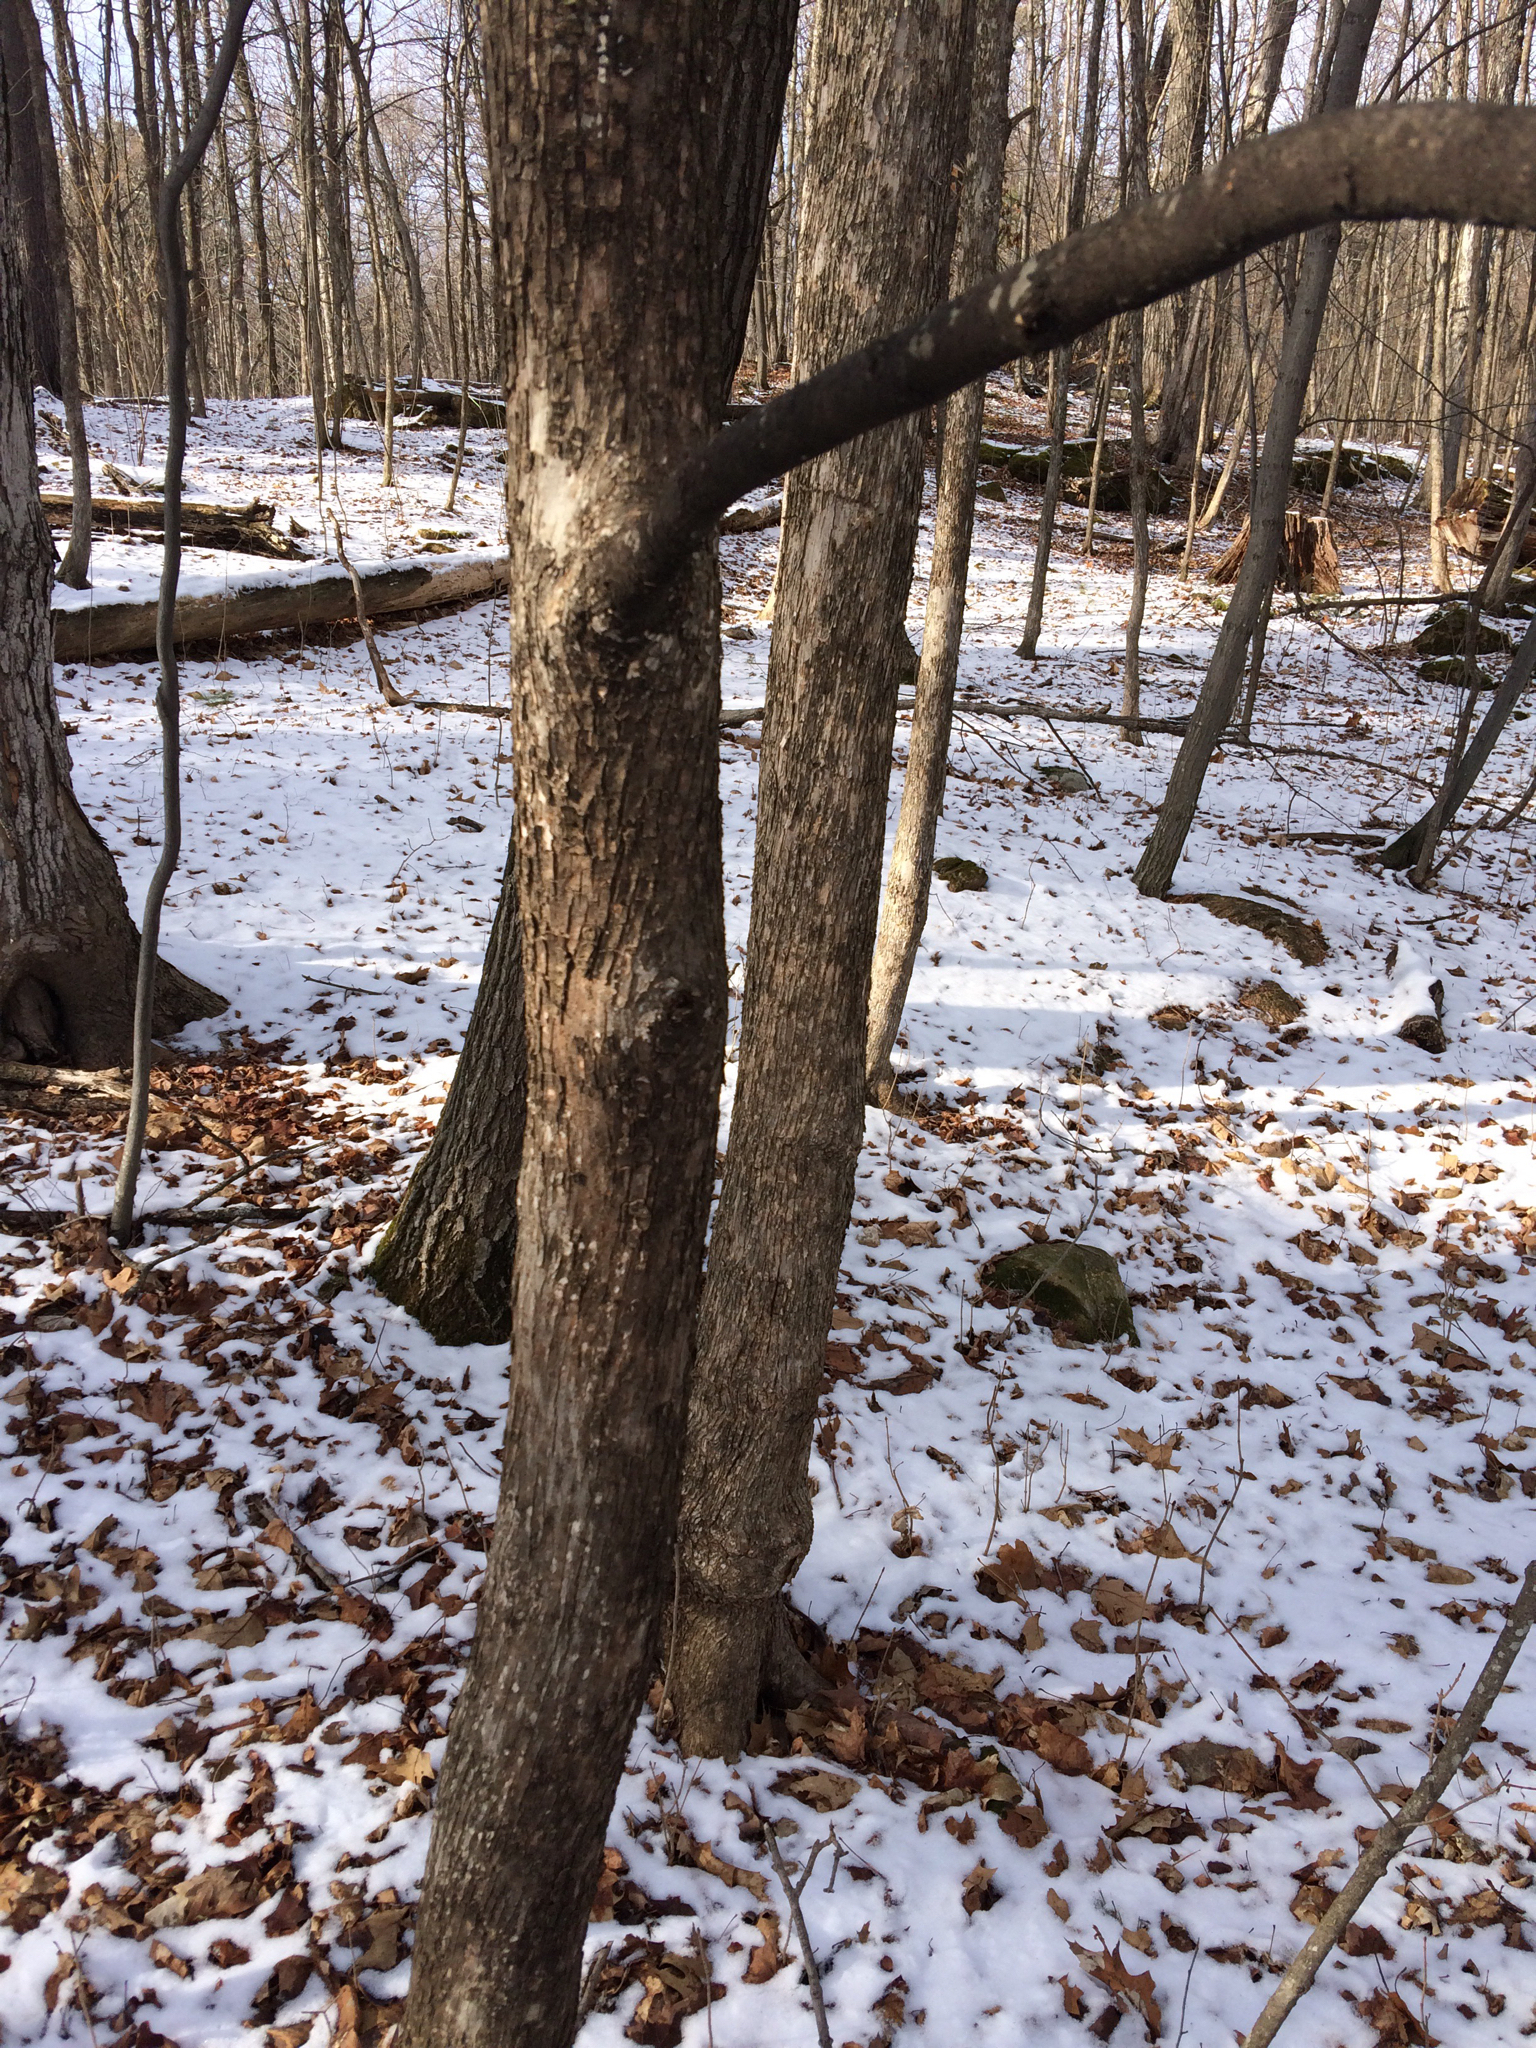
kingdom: Plantae
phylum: Tracheophyta
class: Magnoliopsida
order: Fagales
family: Betulaceae
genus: Ostrya
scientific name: Ostrya virginiana
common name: Ironwood
